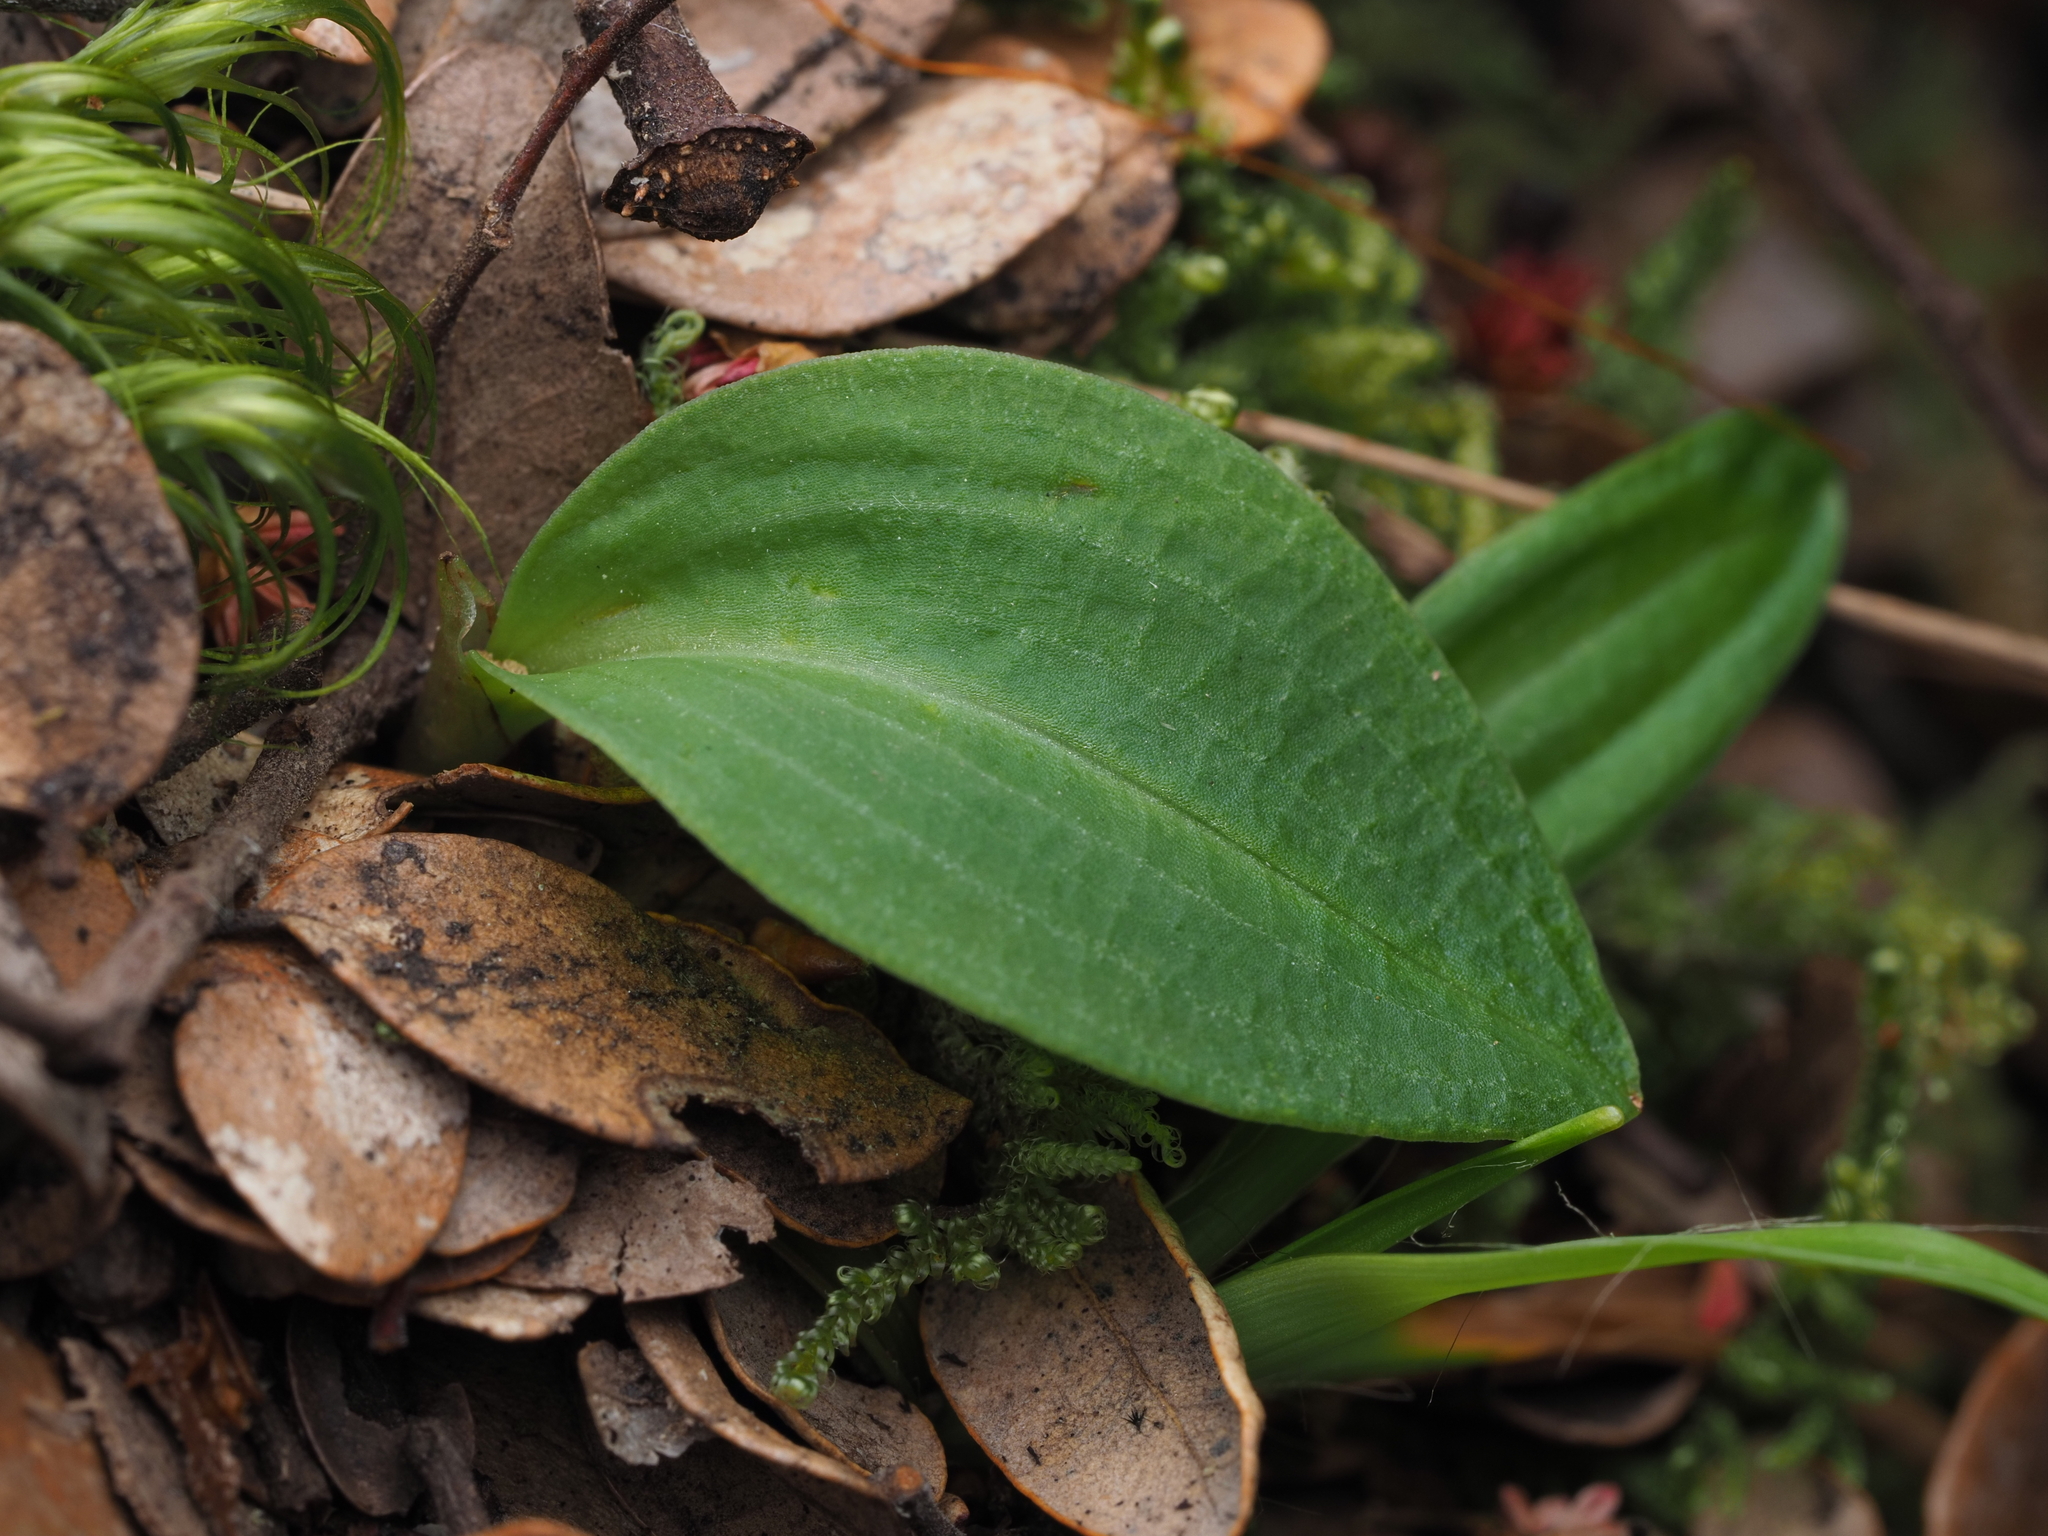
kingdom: Plantae
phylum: Tracheophyta
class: Liliopsida
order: Asparagales
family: Orchidaceae
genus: Chiloglottis
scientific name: Chiloglottis cornuta
